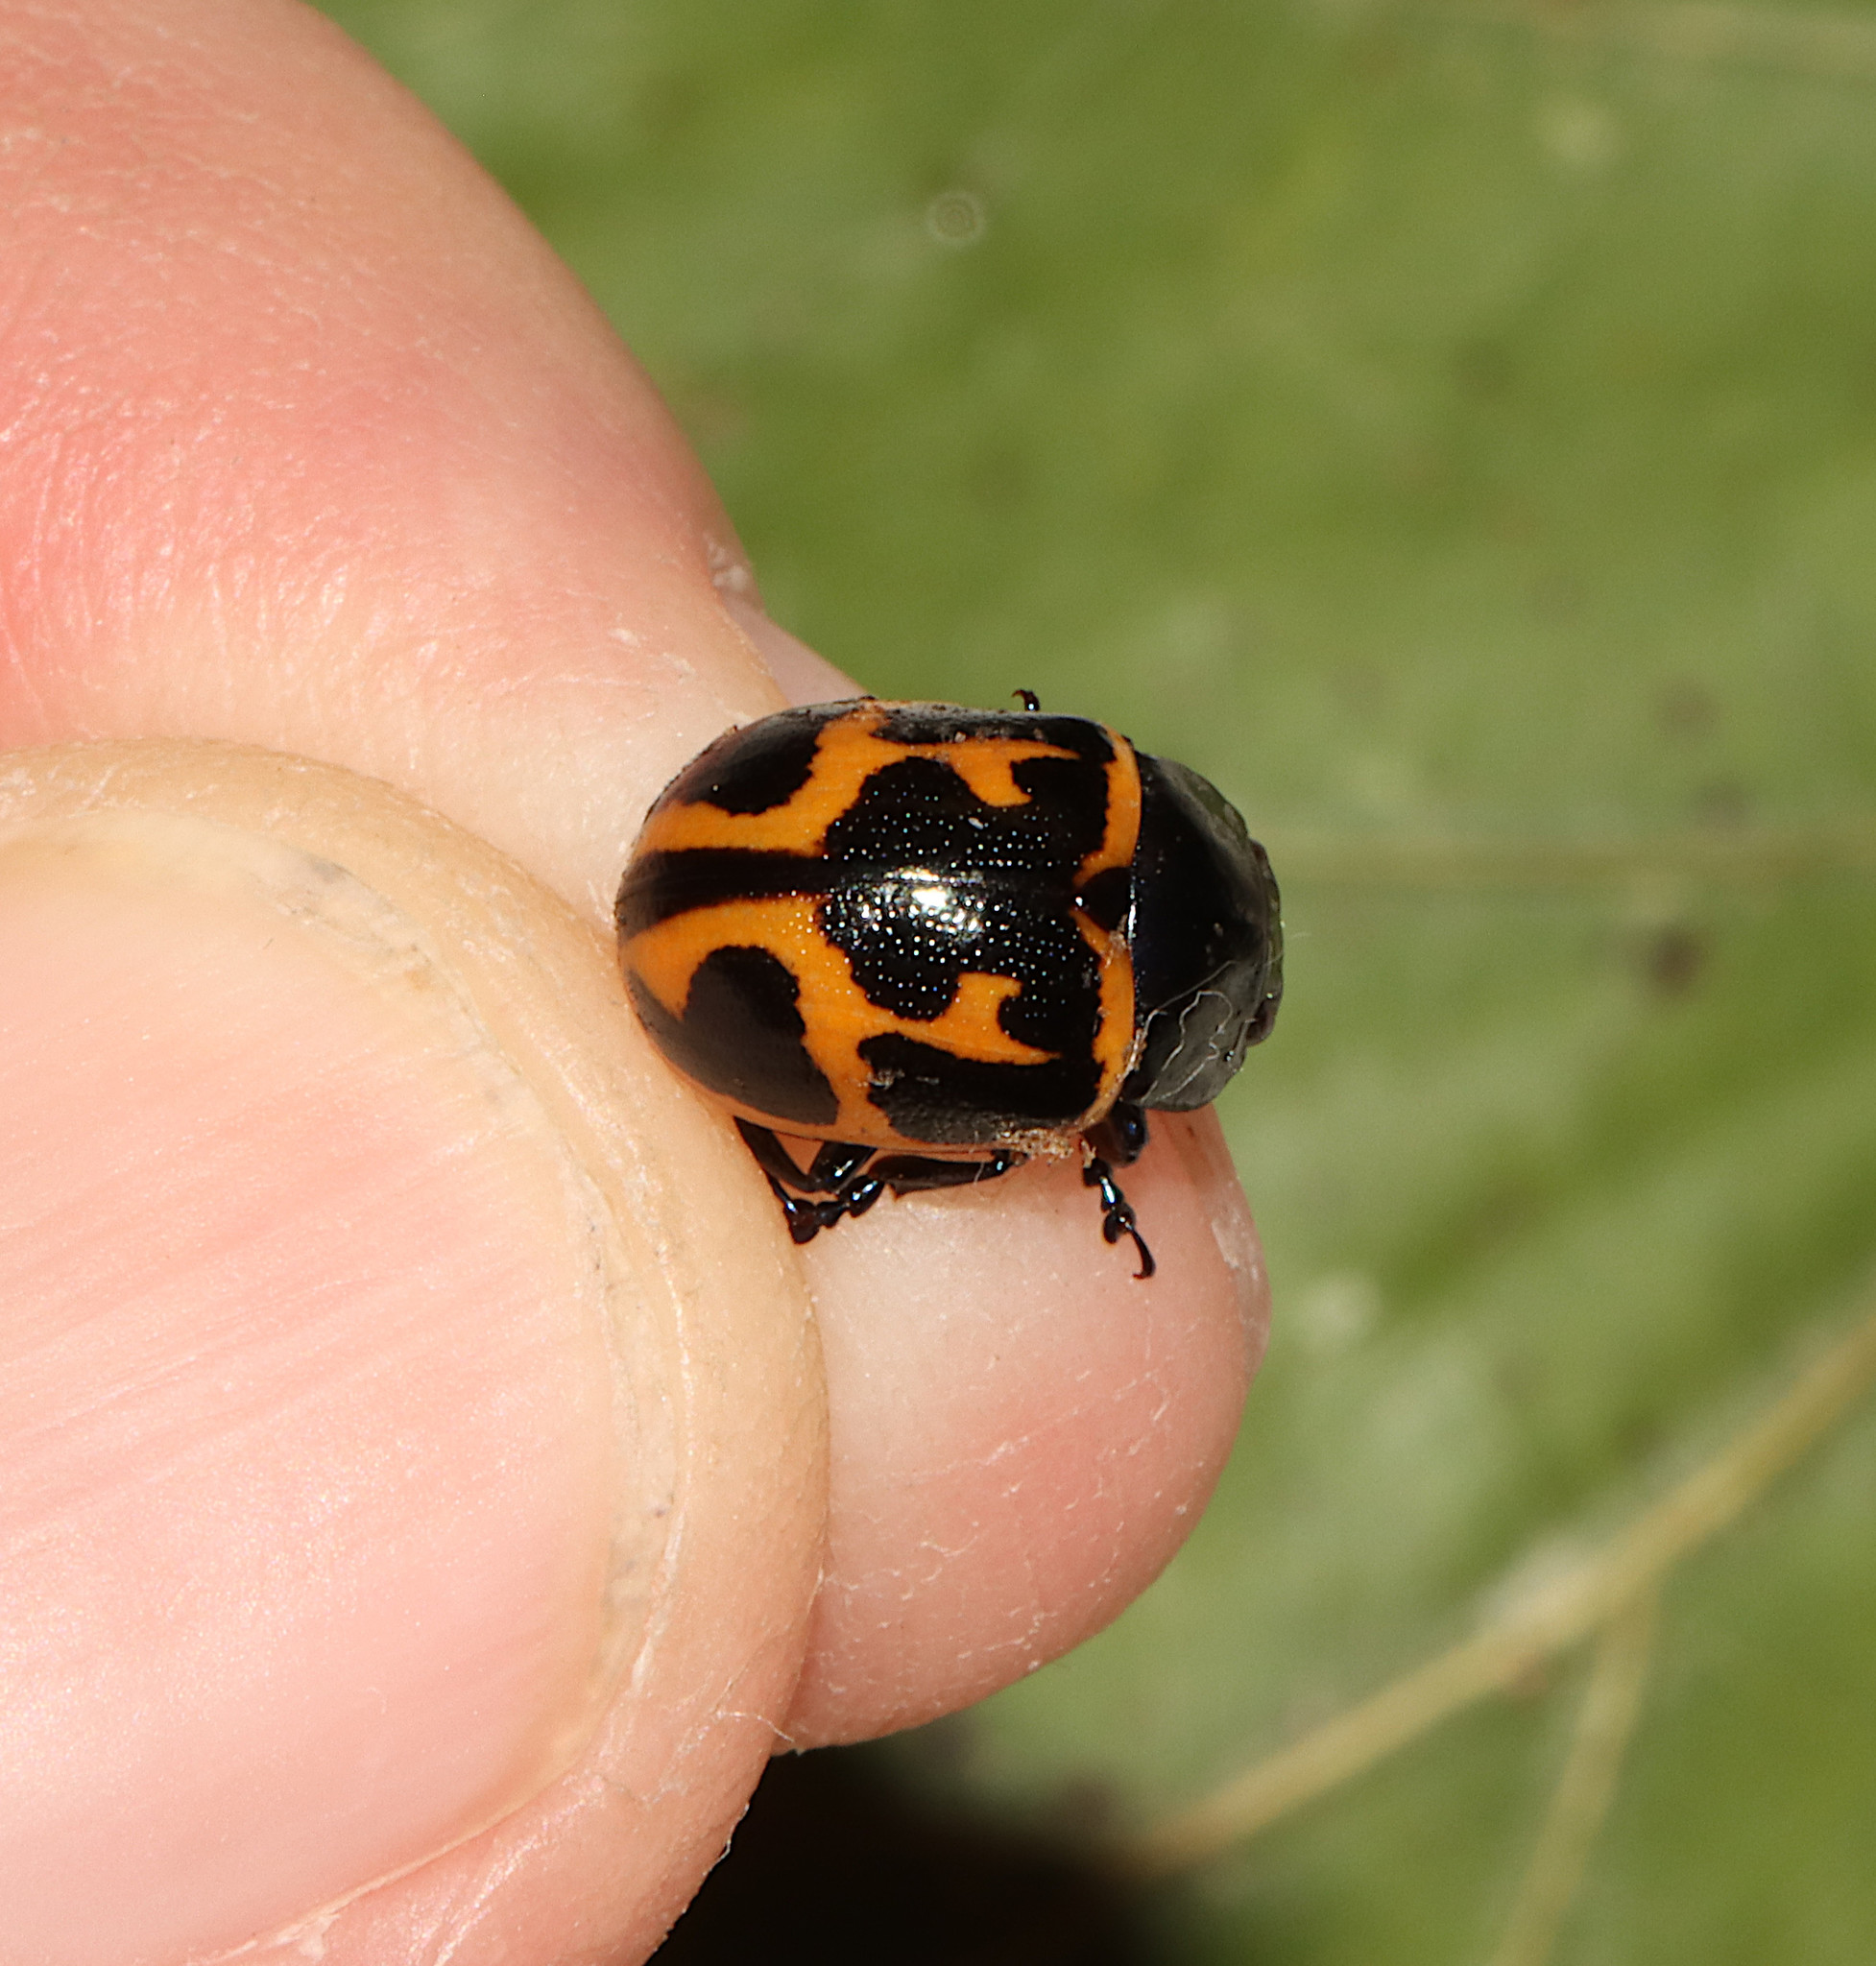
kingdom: Animalia
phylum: Arthropoda
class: Insecta
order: Coleoptera
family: Chrysomelidae
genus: Labidomera
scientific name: Labidomera clivicollis
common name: Swamp milkweed leaf beetle
